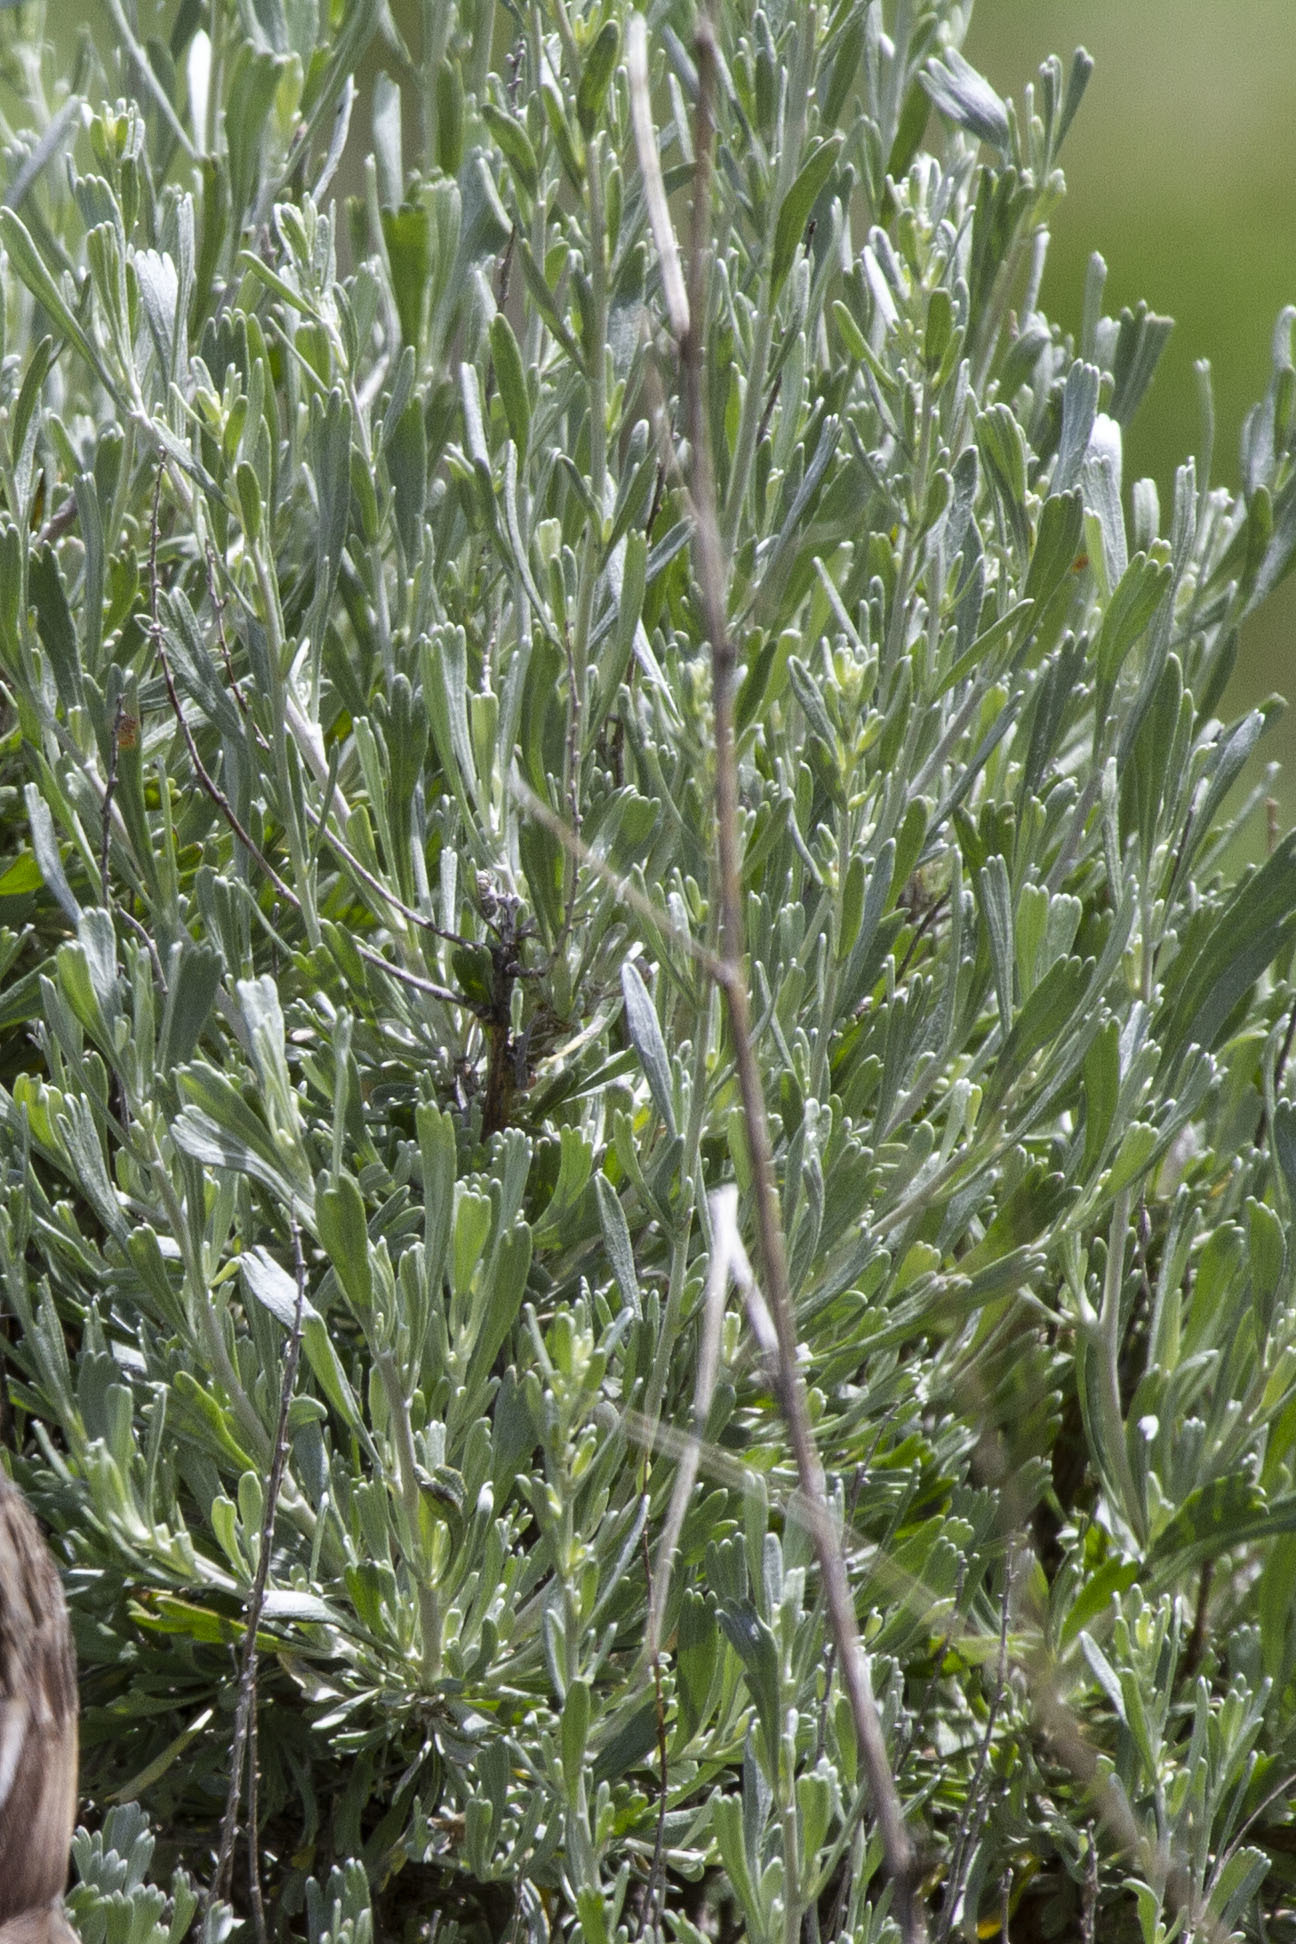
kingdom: Plantae
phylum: Tracheophyta
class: Magnoliopsida
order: Asterales
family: Asteraceae
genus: Artemisia
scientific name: Artemisia tridentata
